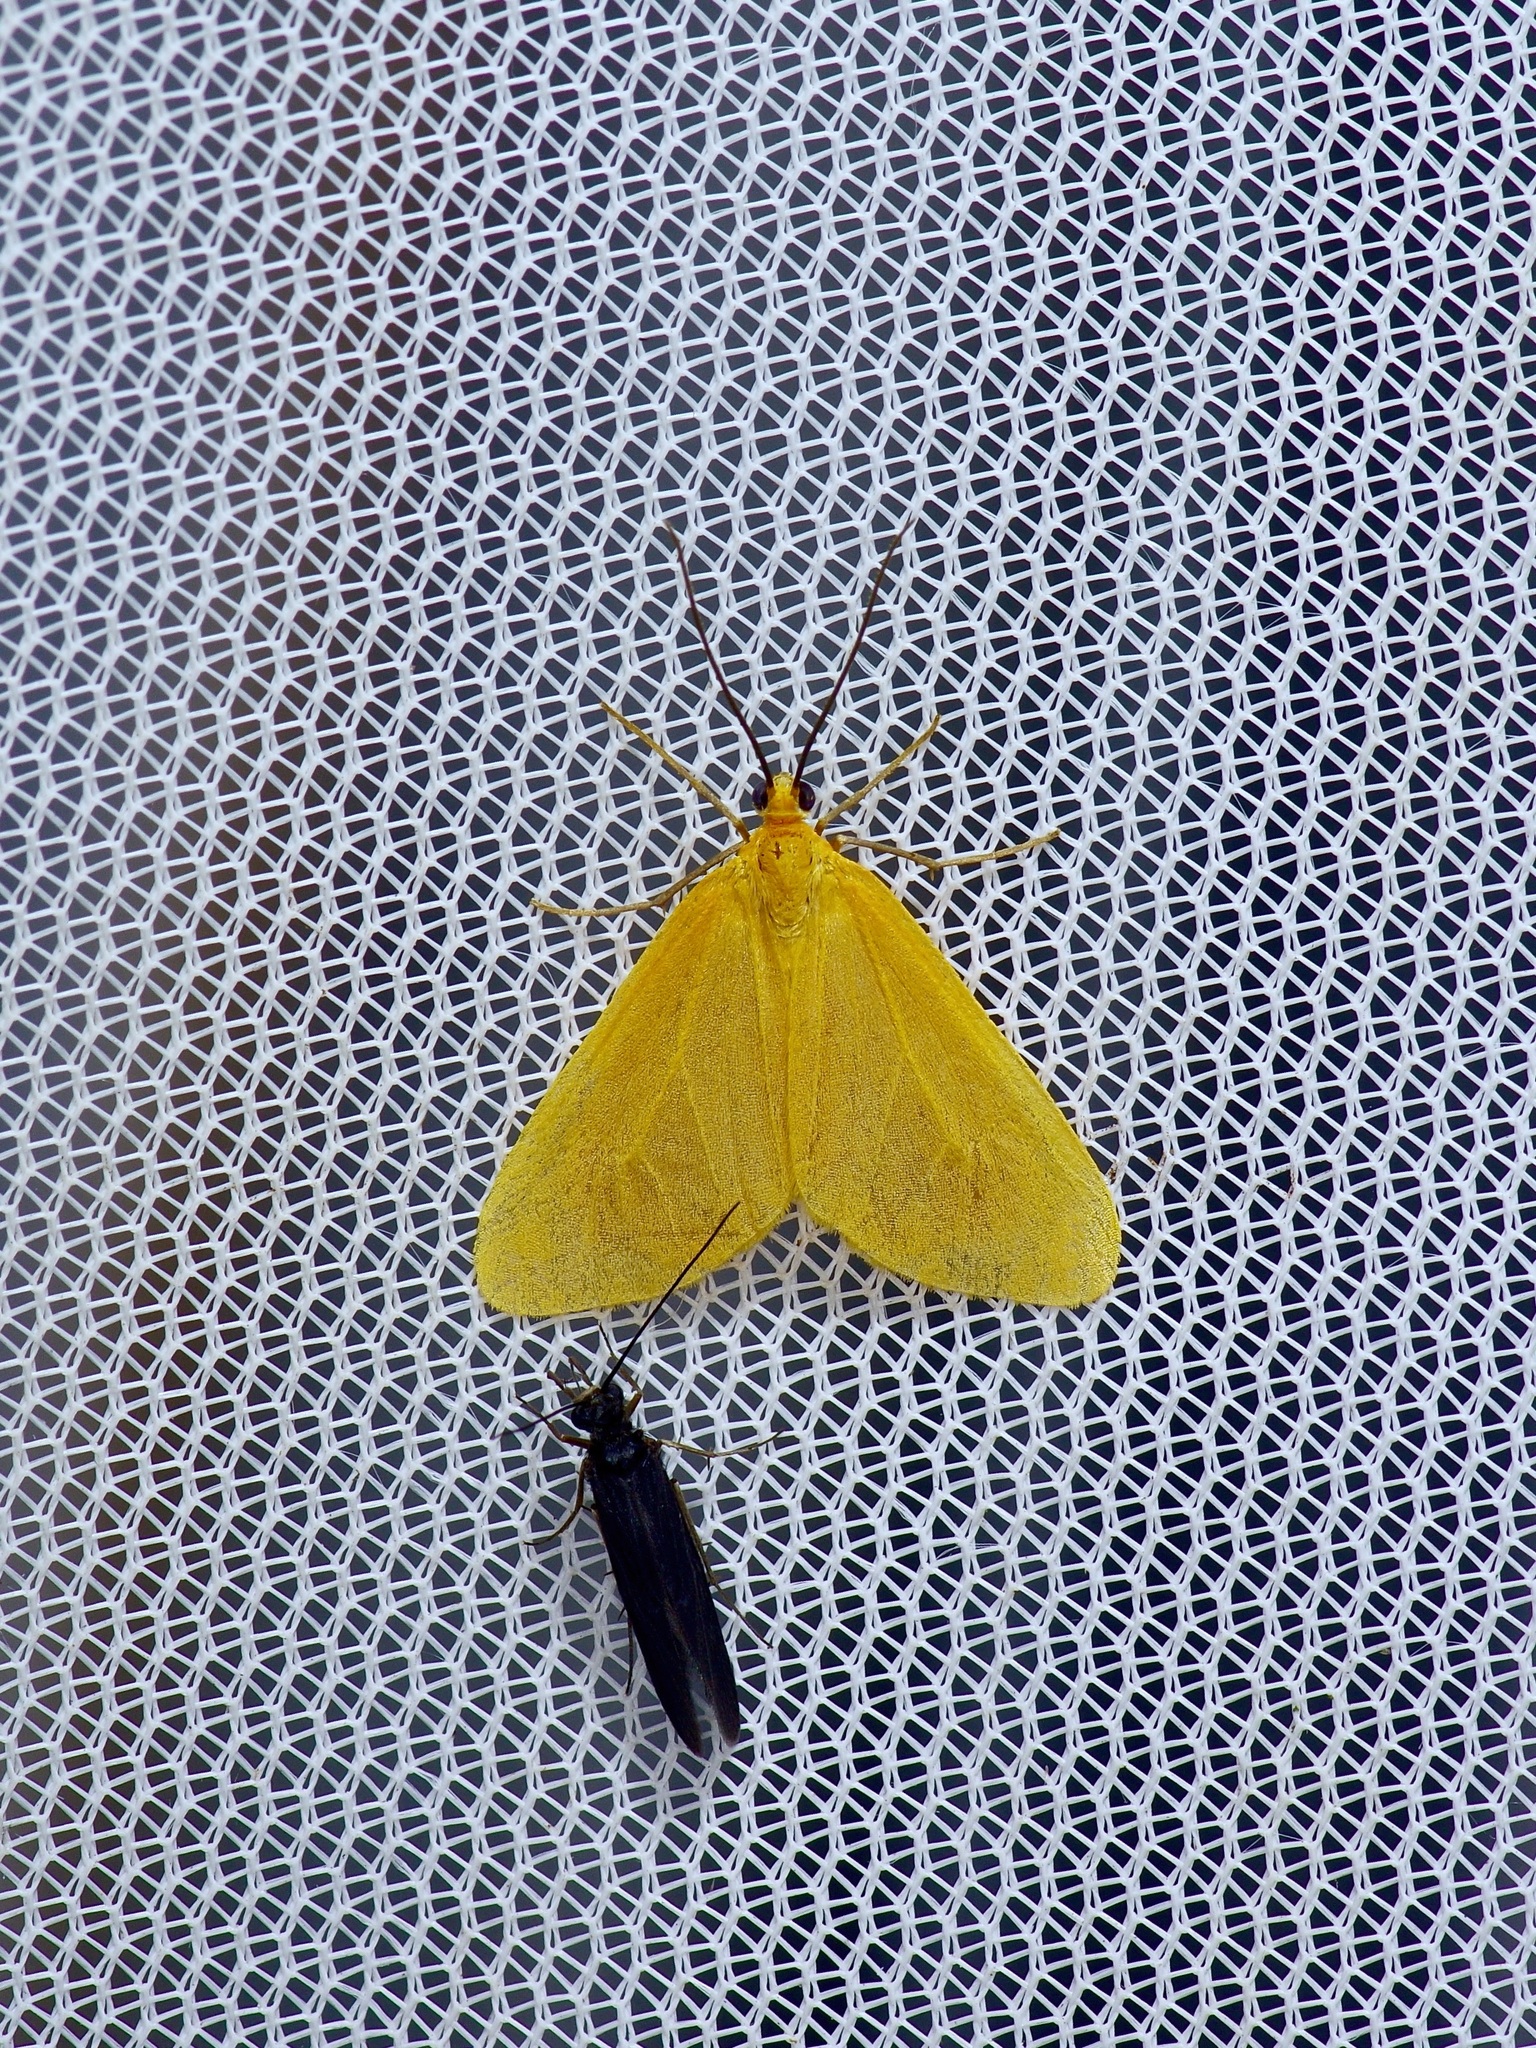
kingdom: Animalia
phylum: Arthropoda
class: Insecta
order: Lepidoptera
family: Geometridae
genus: Eubaphe
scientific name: Eubaphe unicolor
